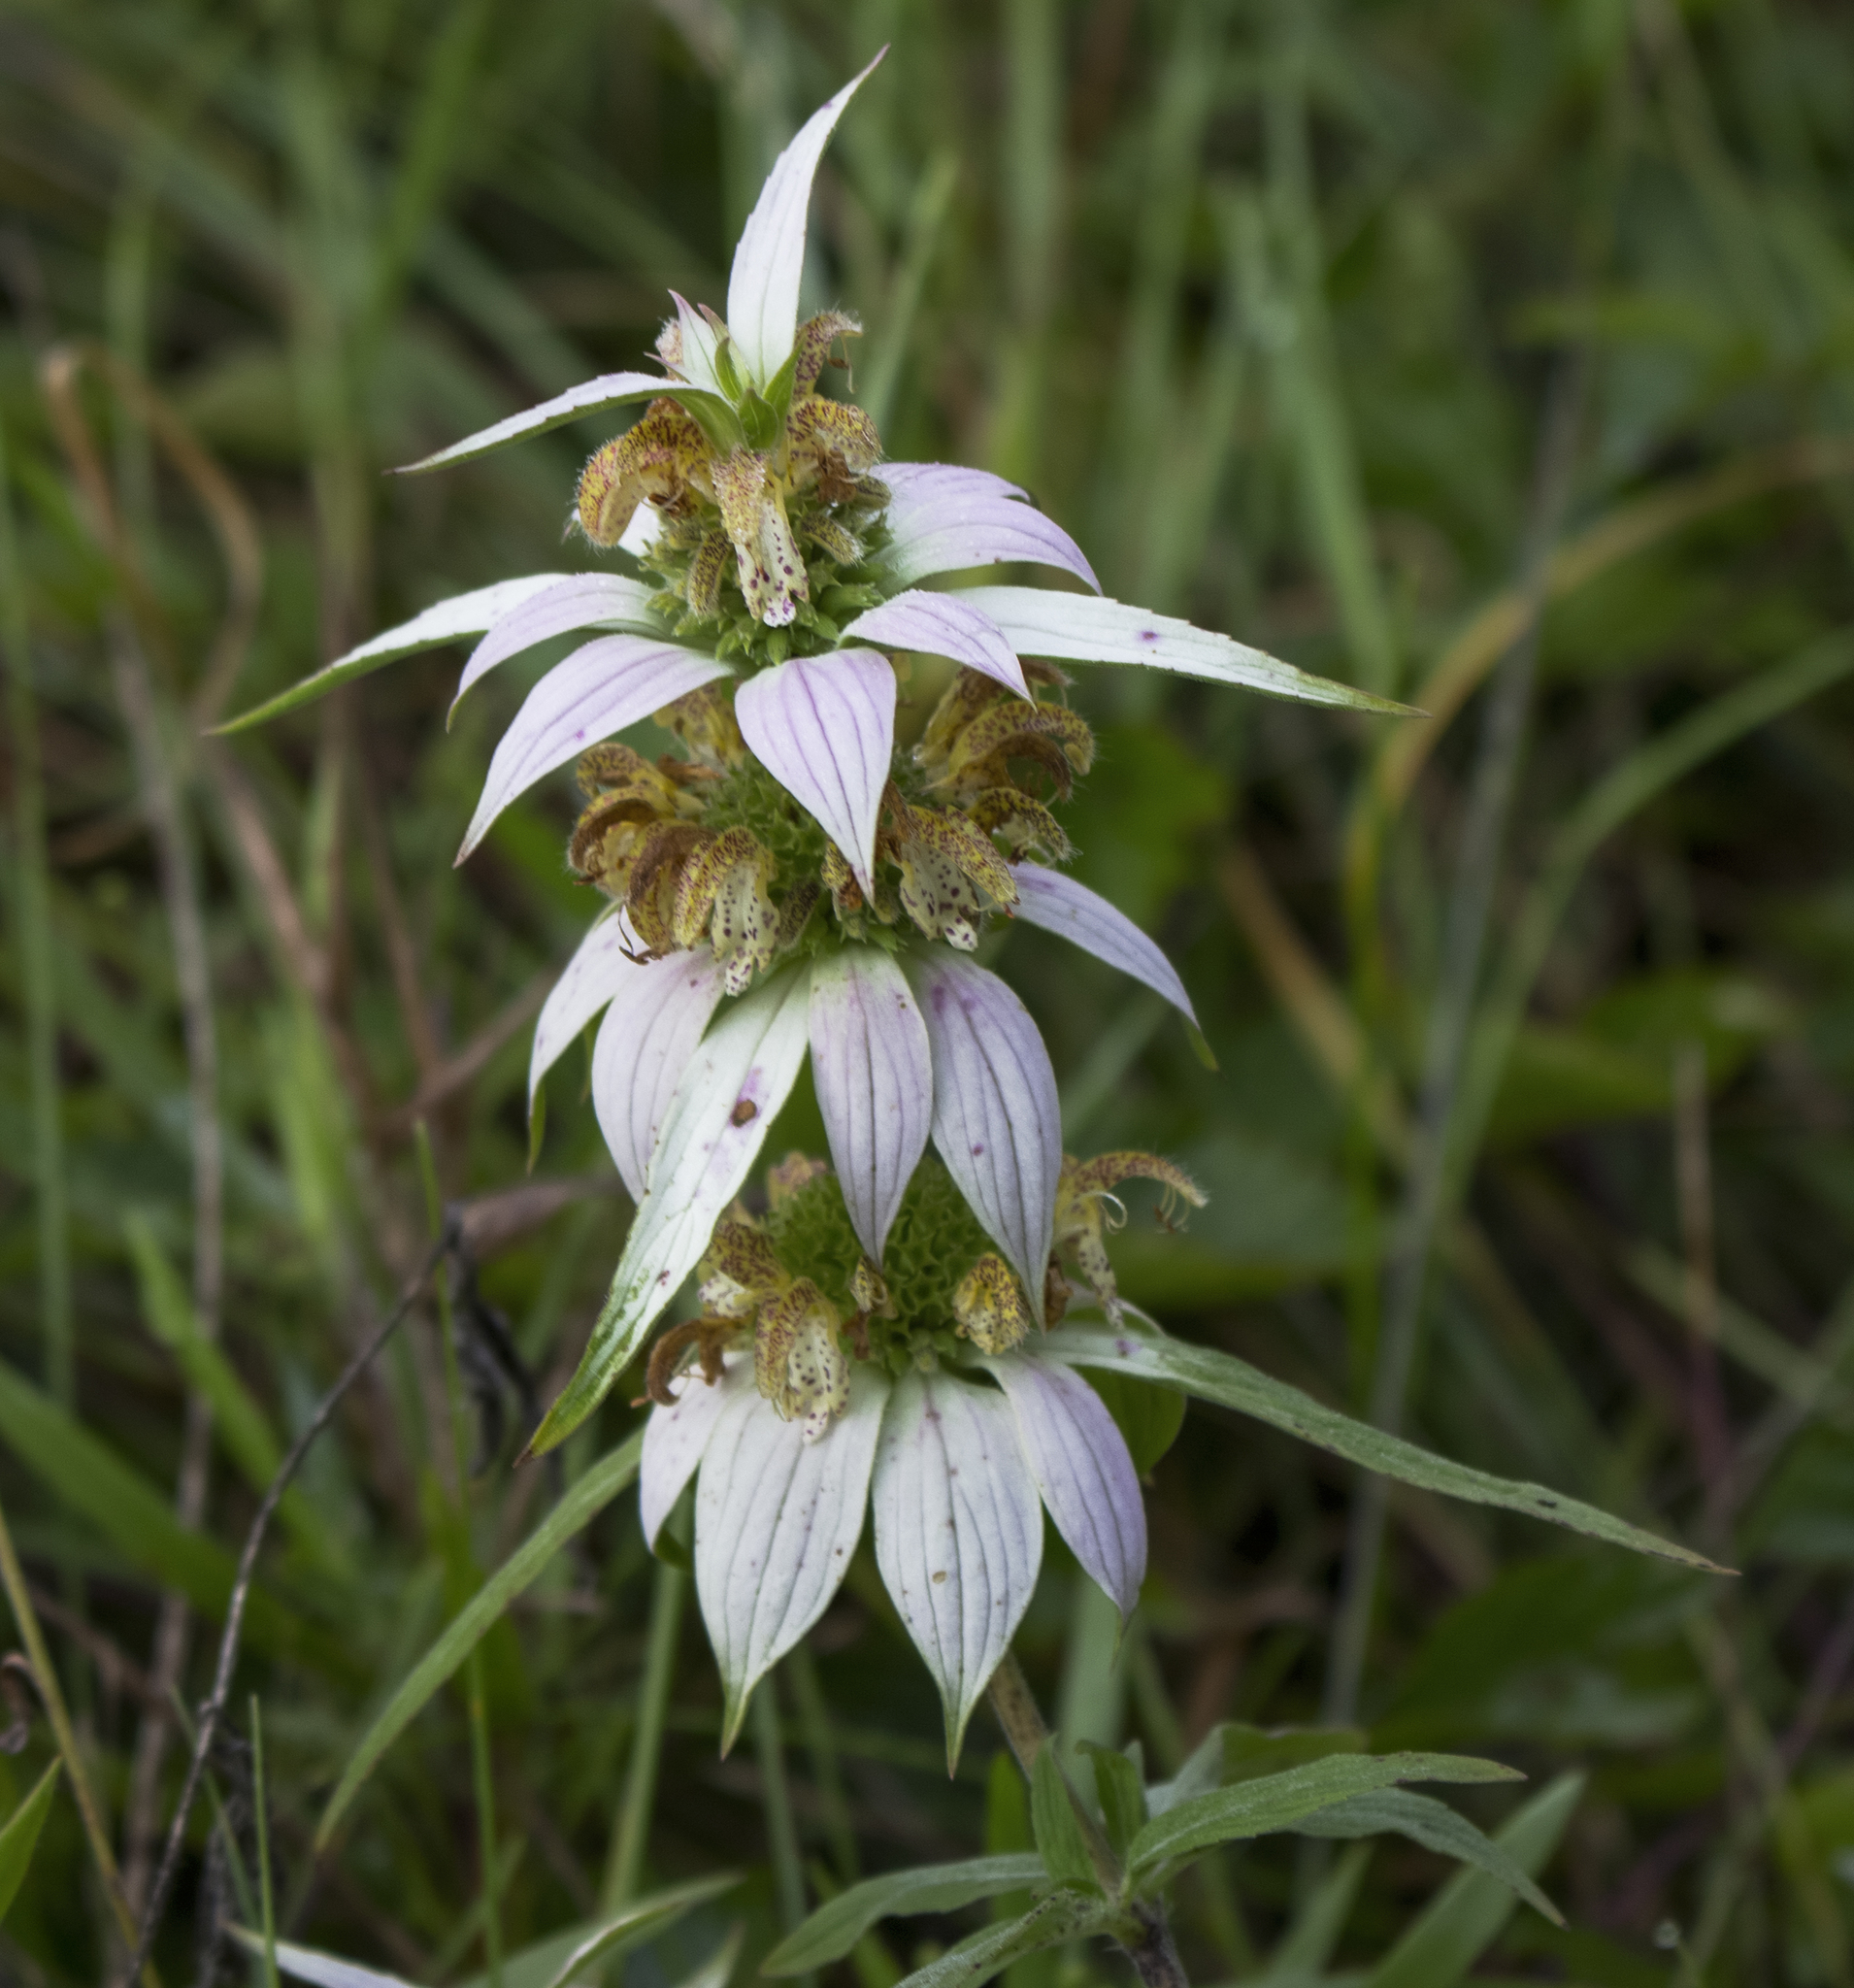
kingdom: Plantae
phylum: Tracheophyta
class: Magnoliopsida
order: Lamiales
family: Lamiaceae
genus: Monarda
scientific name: Monarda punctata
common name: Dotted monarda
